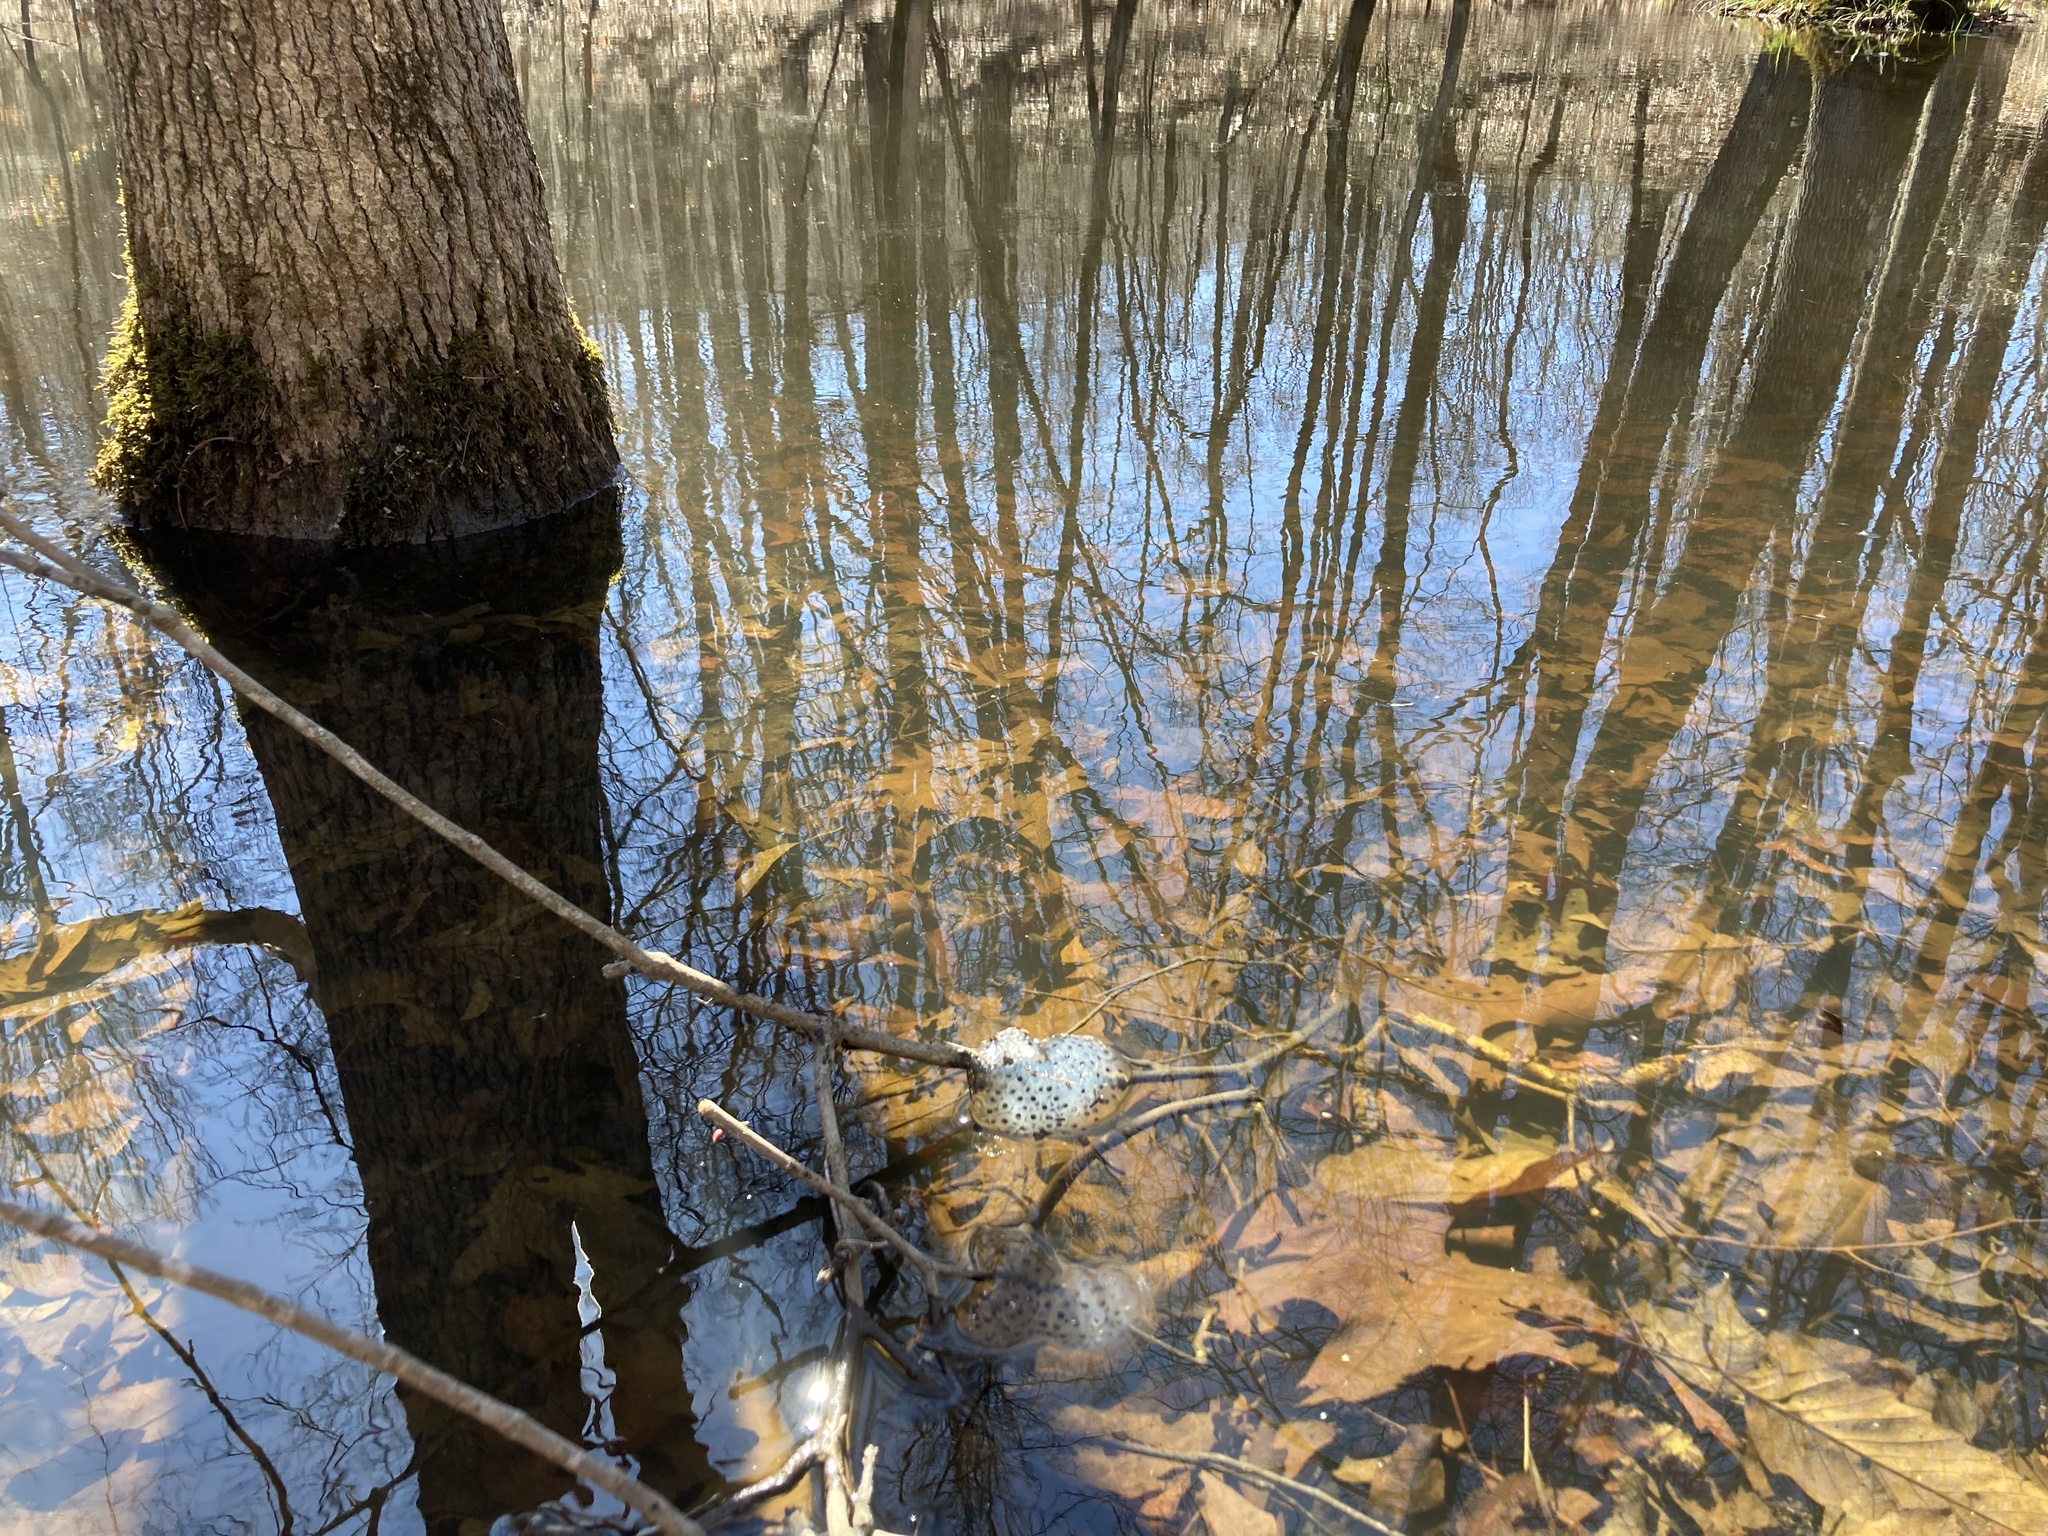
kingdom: Animalia
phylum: Chordata
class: Amphibia
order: Caudata
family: Ambystomatidae
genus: Ambystoma
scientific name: Ambystoma maculatum
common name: Spotted salamander
